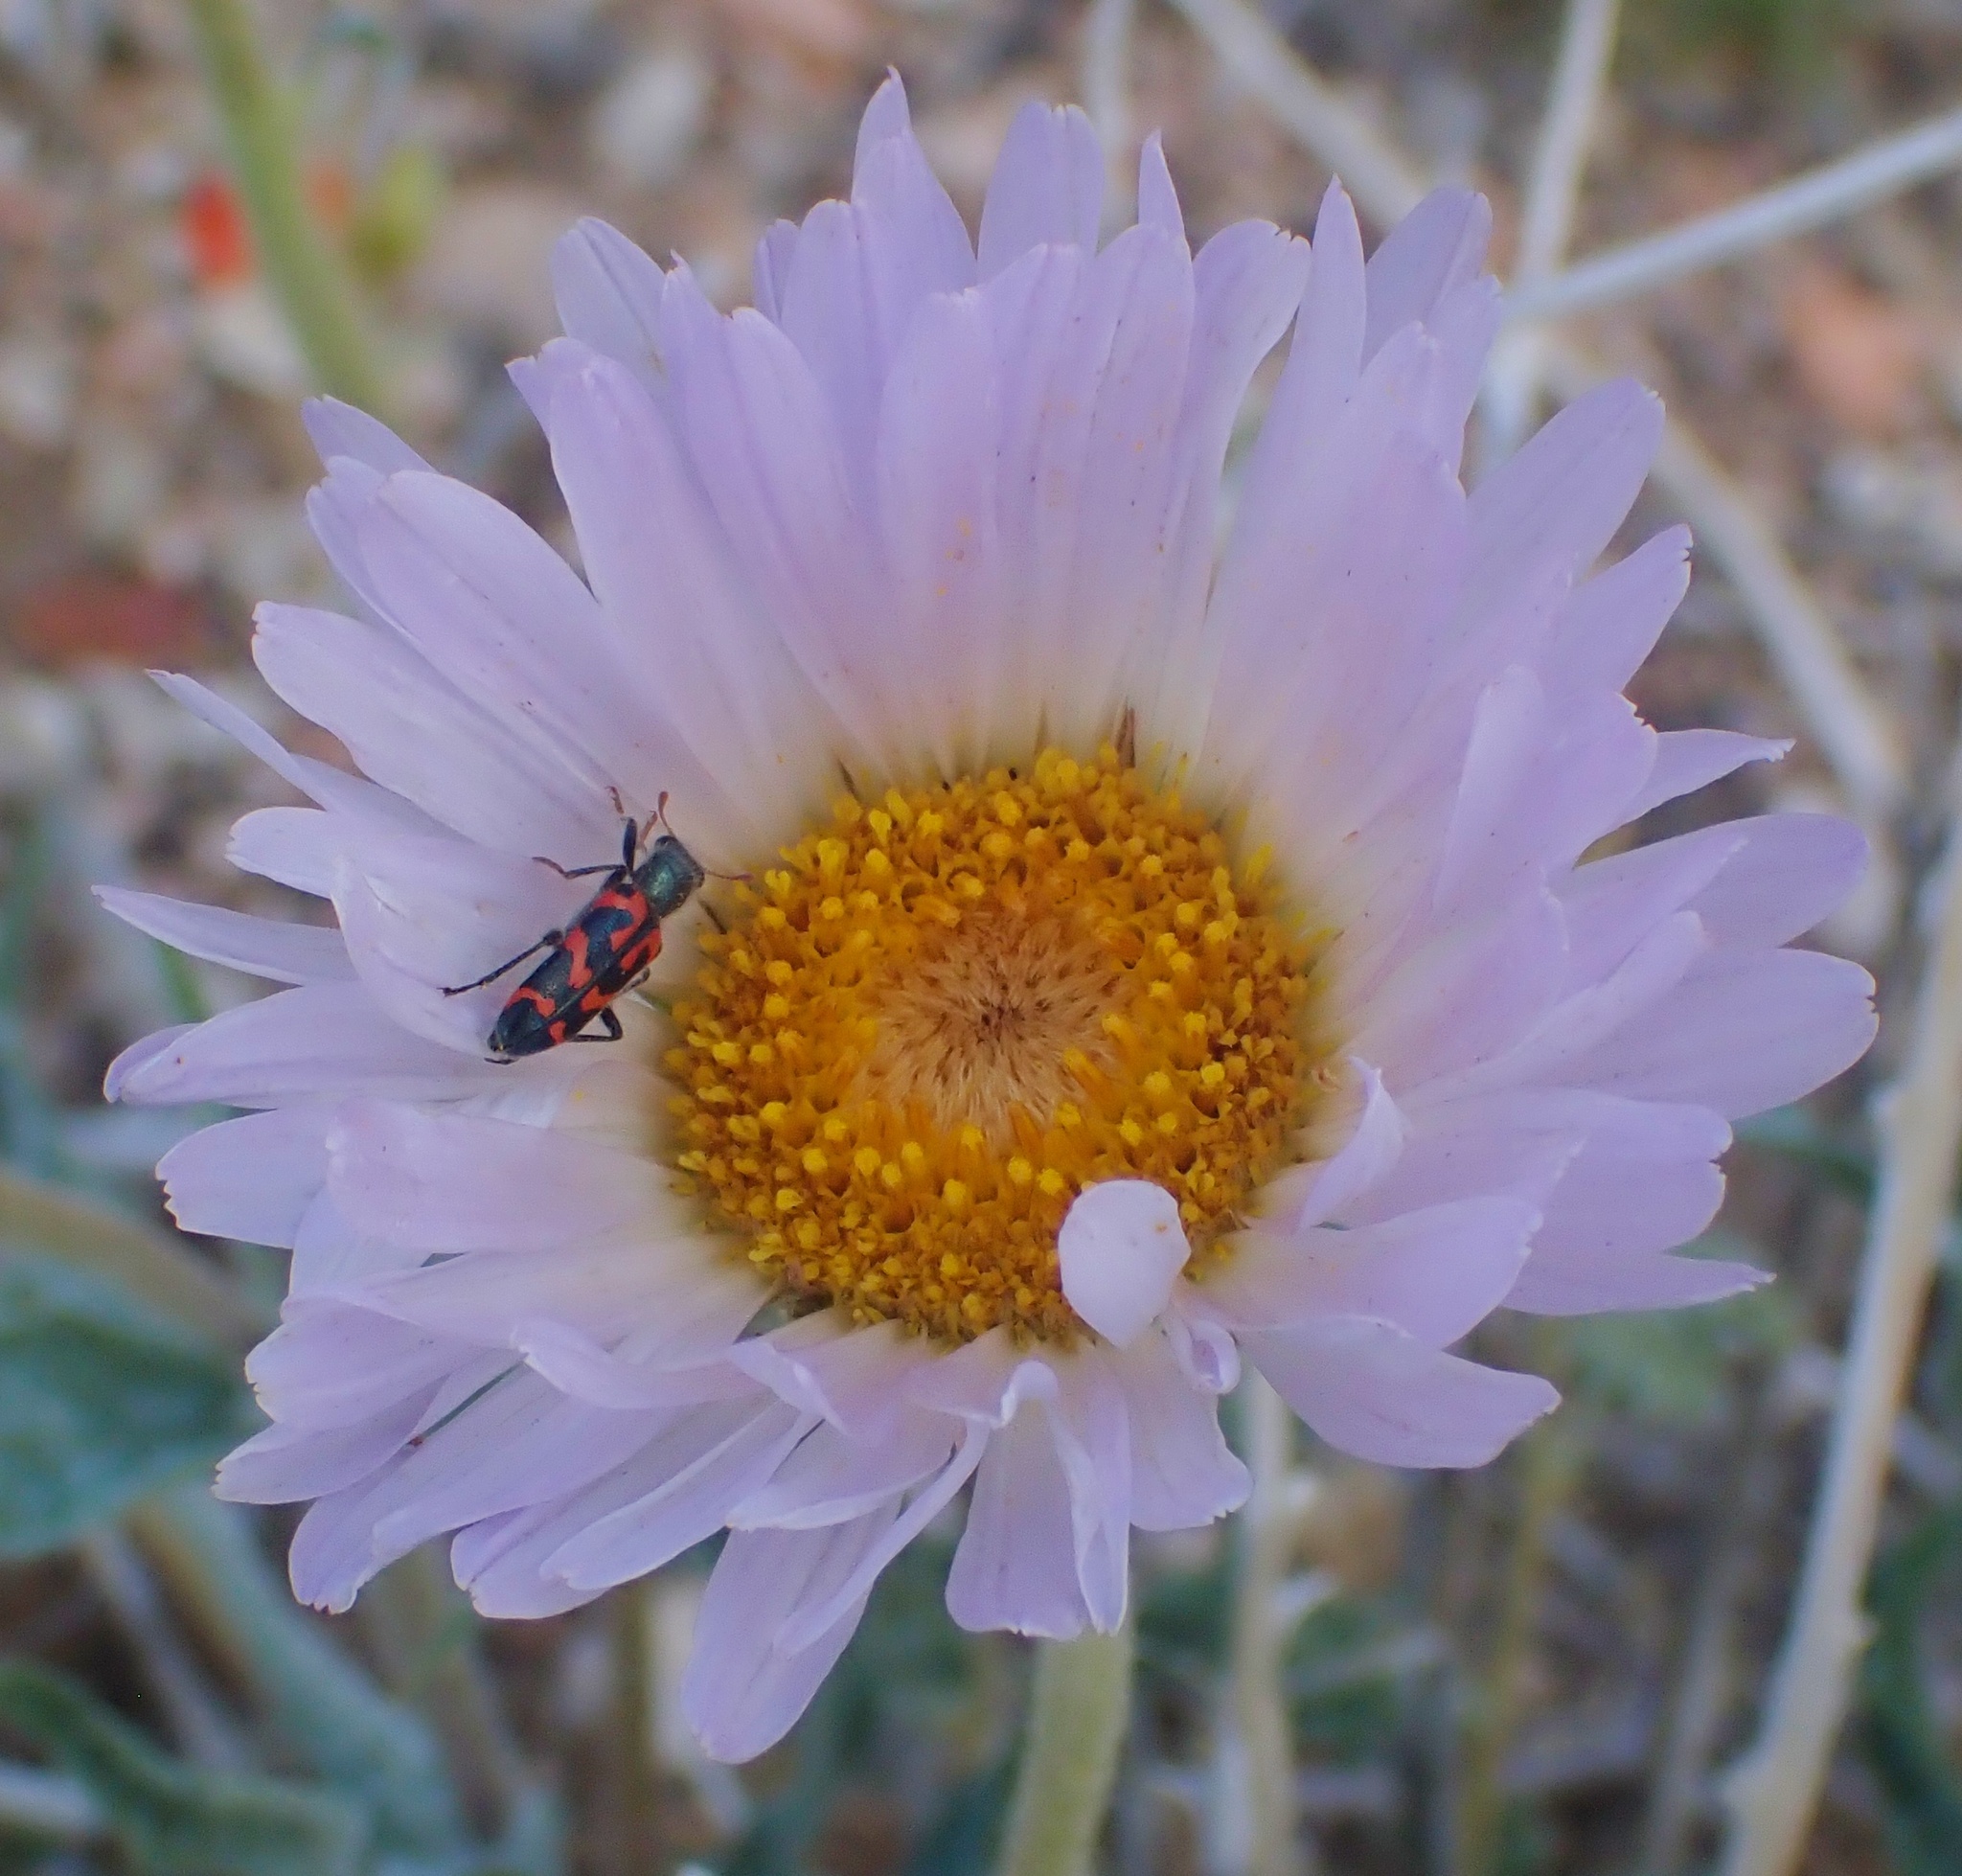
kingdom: Plantae
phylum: Tracheophyta
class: Magnoliopsida
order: Asterales
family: Asteraceae
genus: Xylorhiza
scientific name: Xylorhiza tortifolia
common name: Hurt-leaf woody-aster
